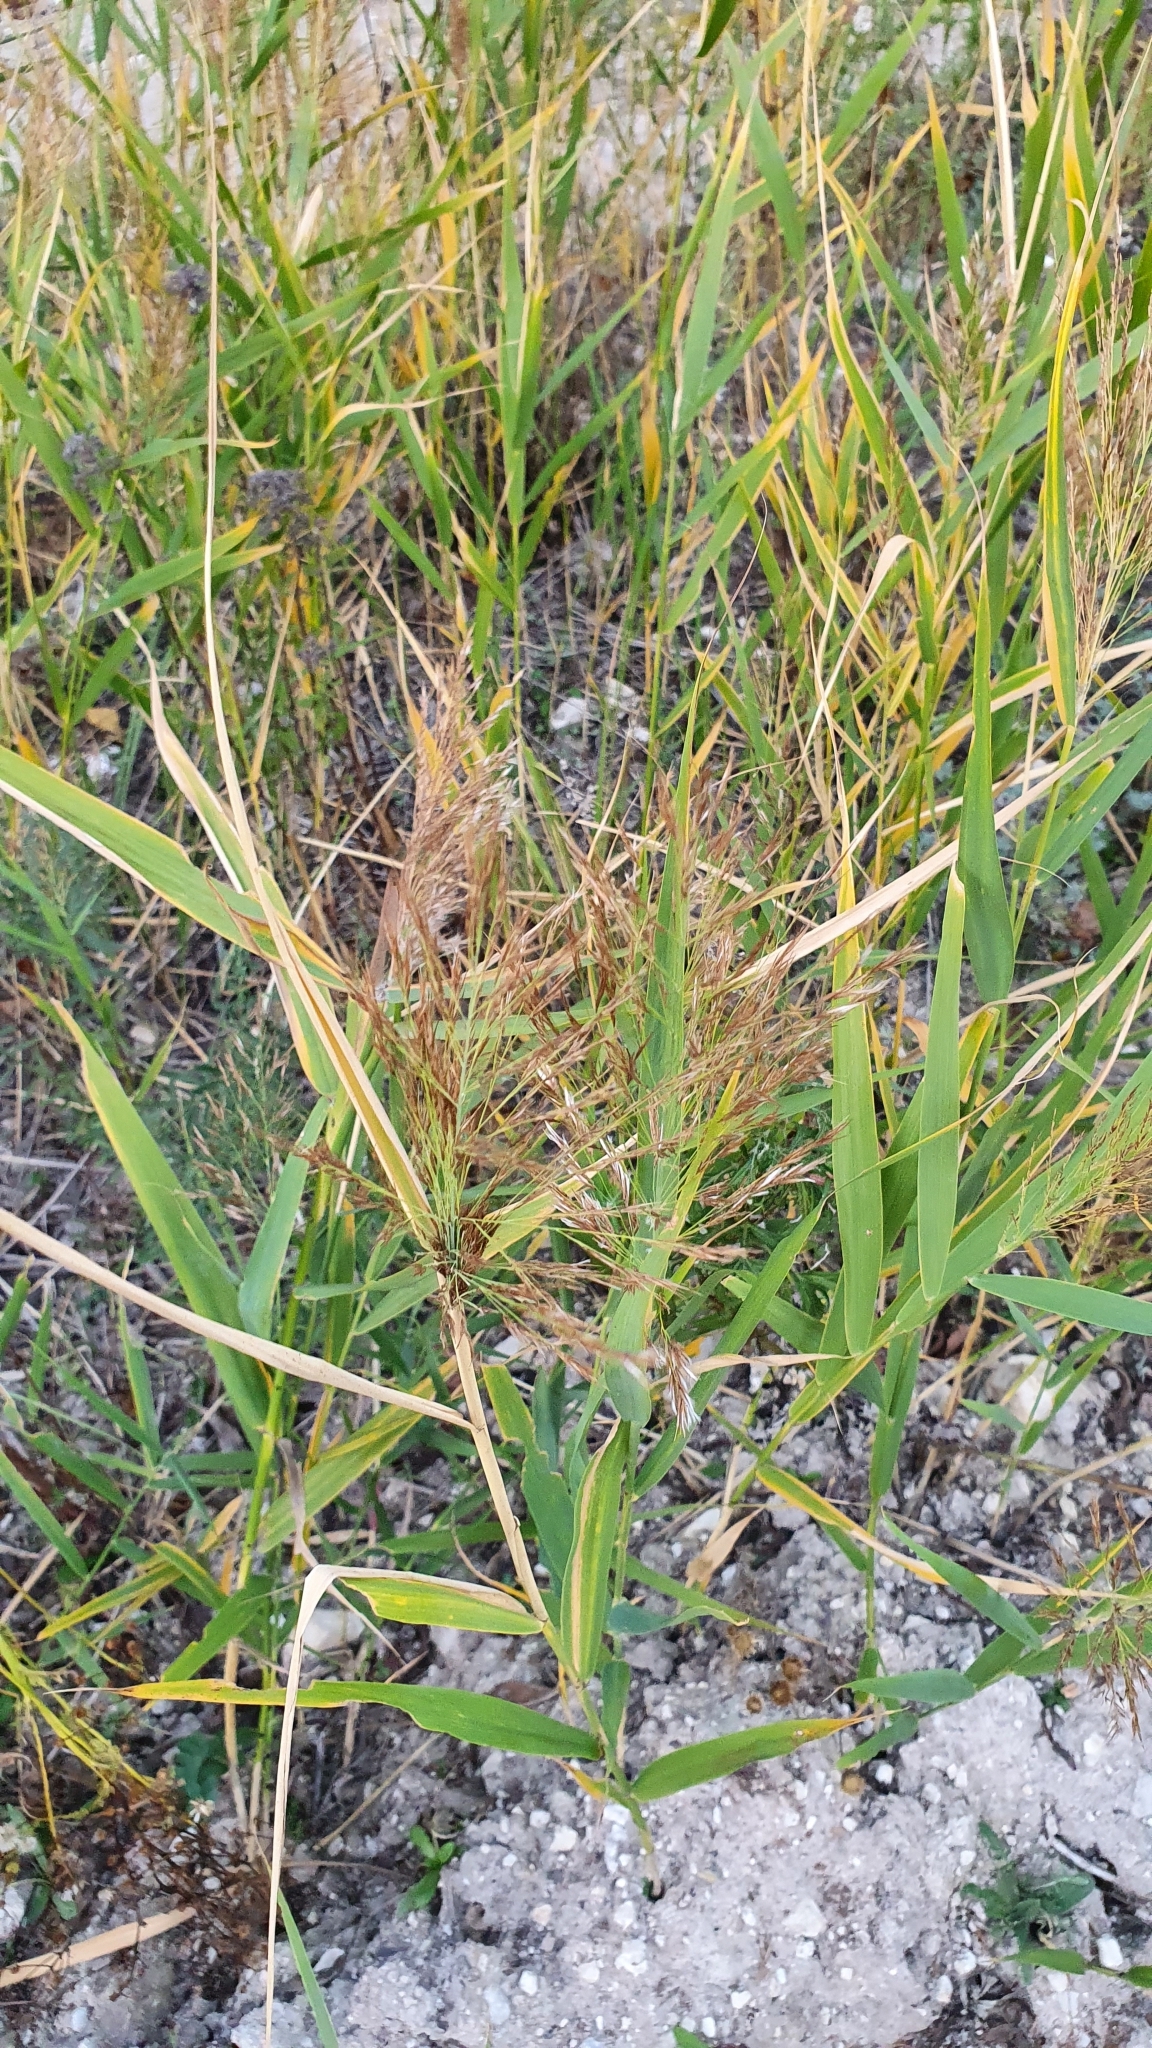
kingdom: Plantae
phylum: Tracheophyta
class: Liliopsida
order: Poales
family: Poaceae
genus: Phragmites
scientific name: Phragmites australis
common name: Common reed
